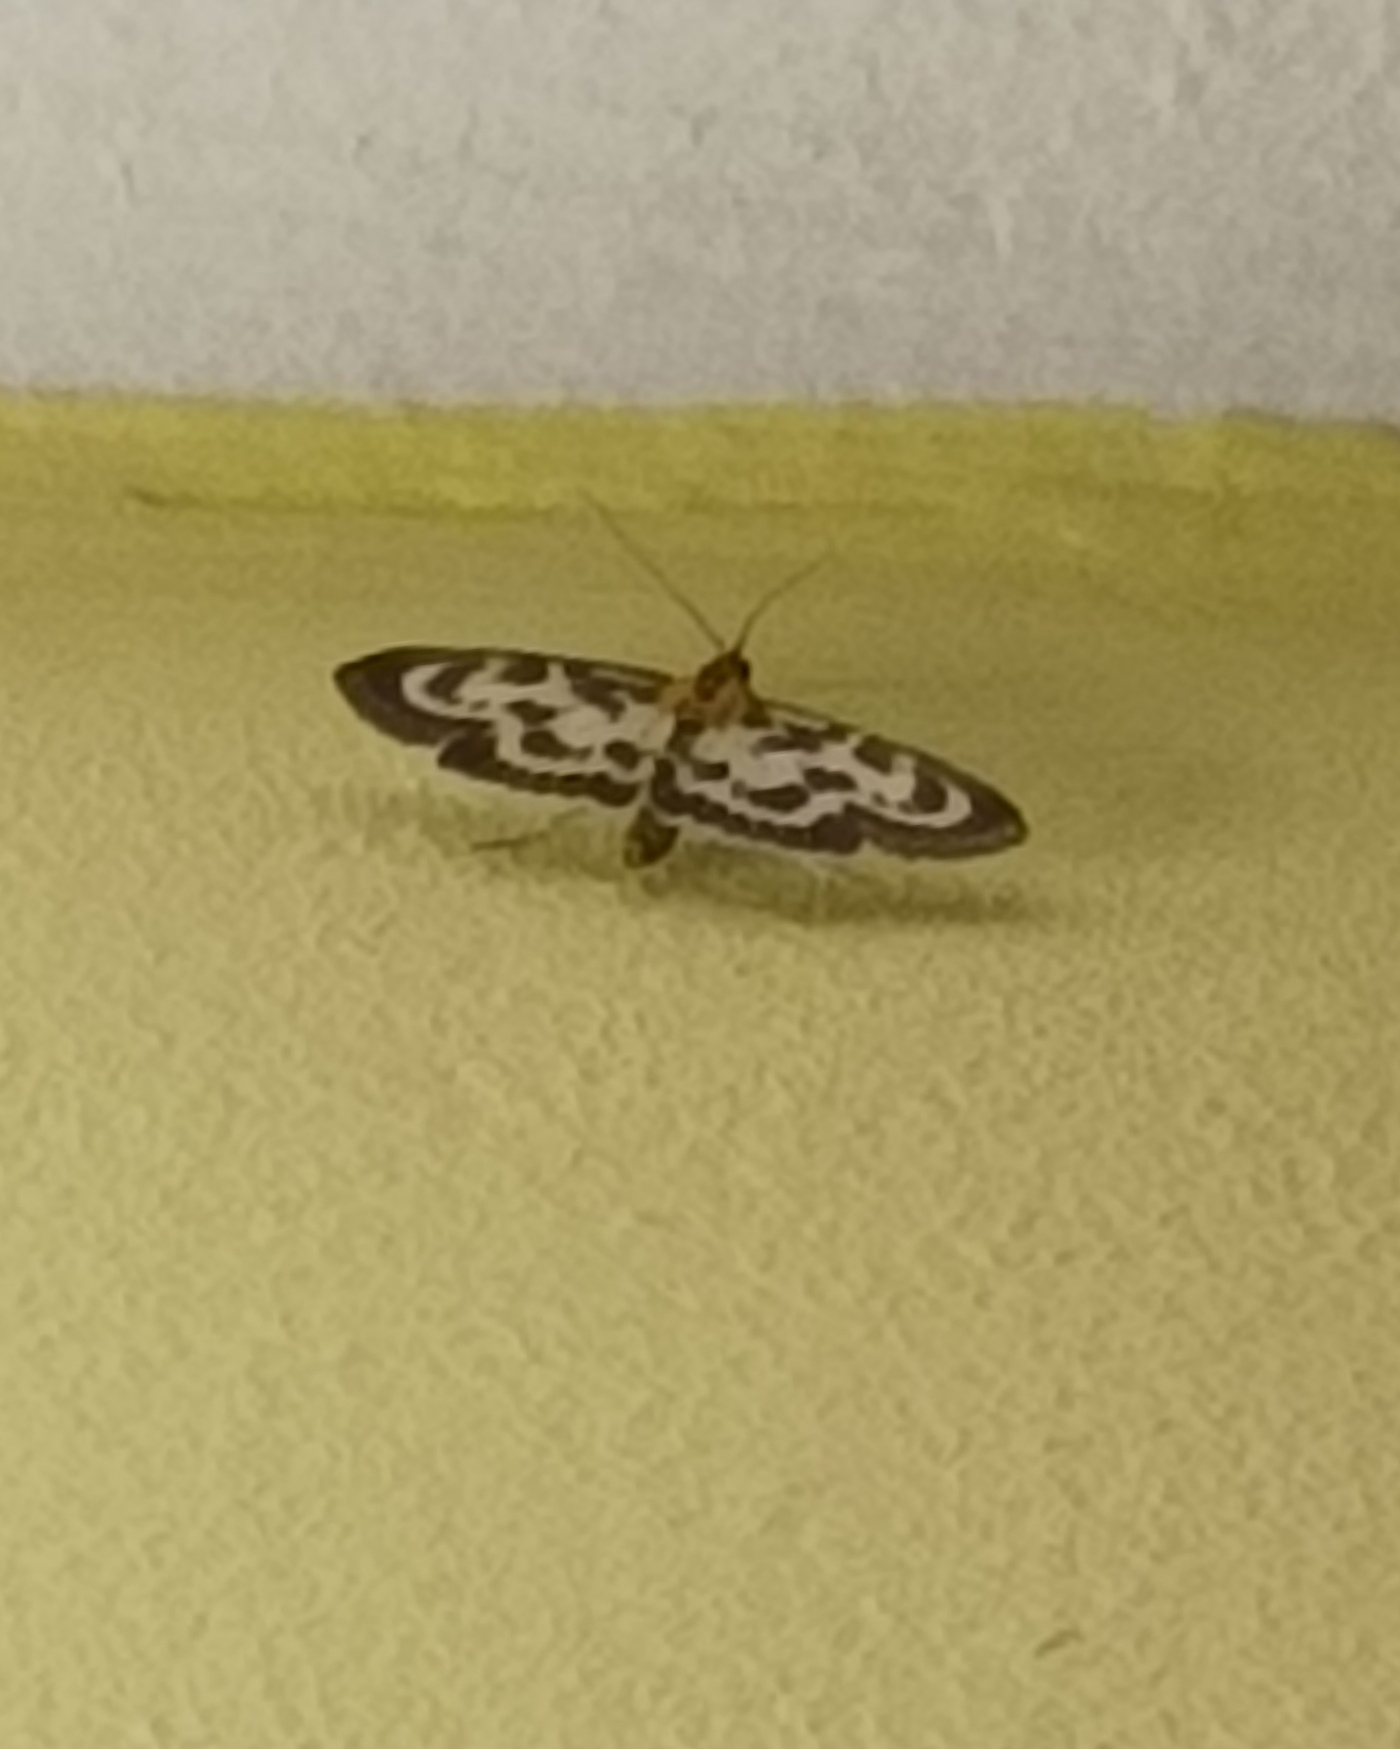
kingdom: Animalia
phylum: Arthropoda
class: Insecta
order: Lepidoptera
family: Crambidae
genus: Anania
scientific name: Anania hortulata
